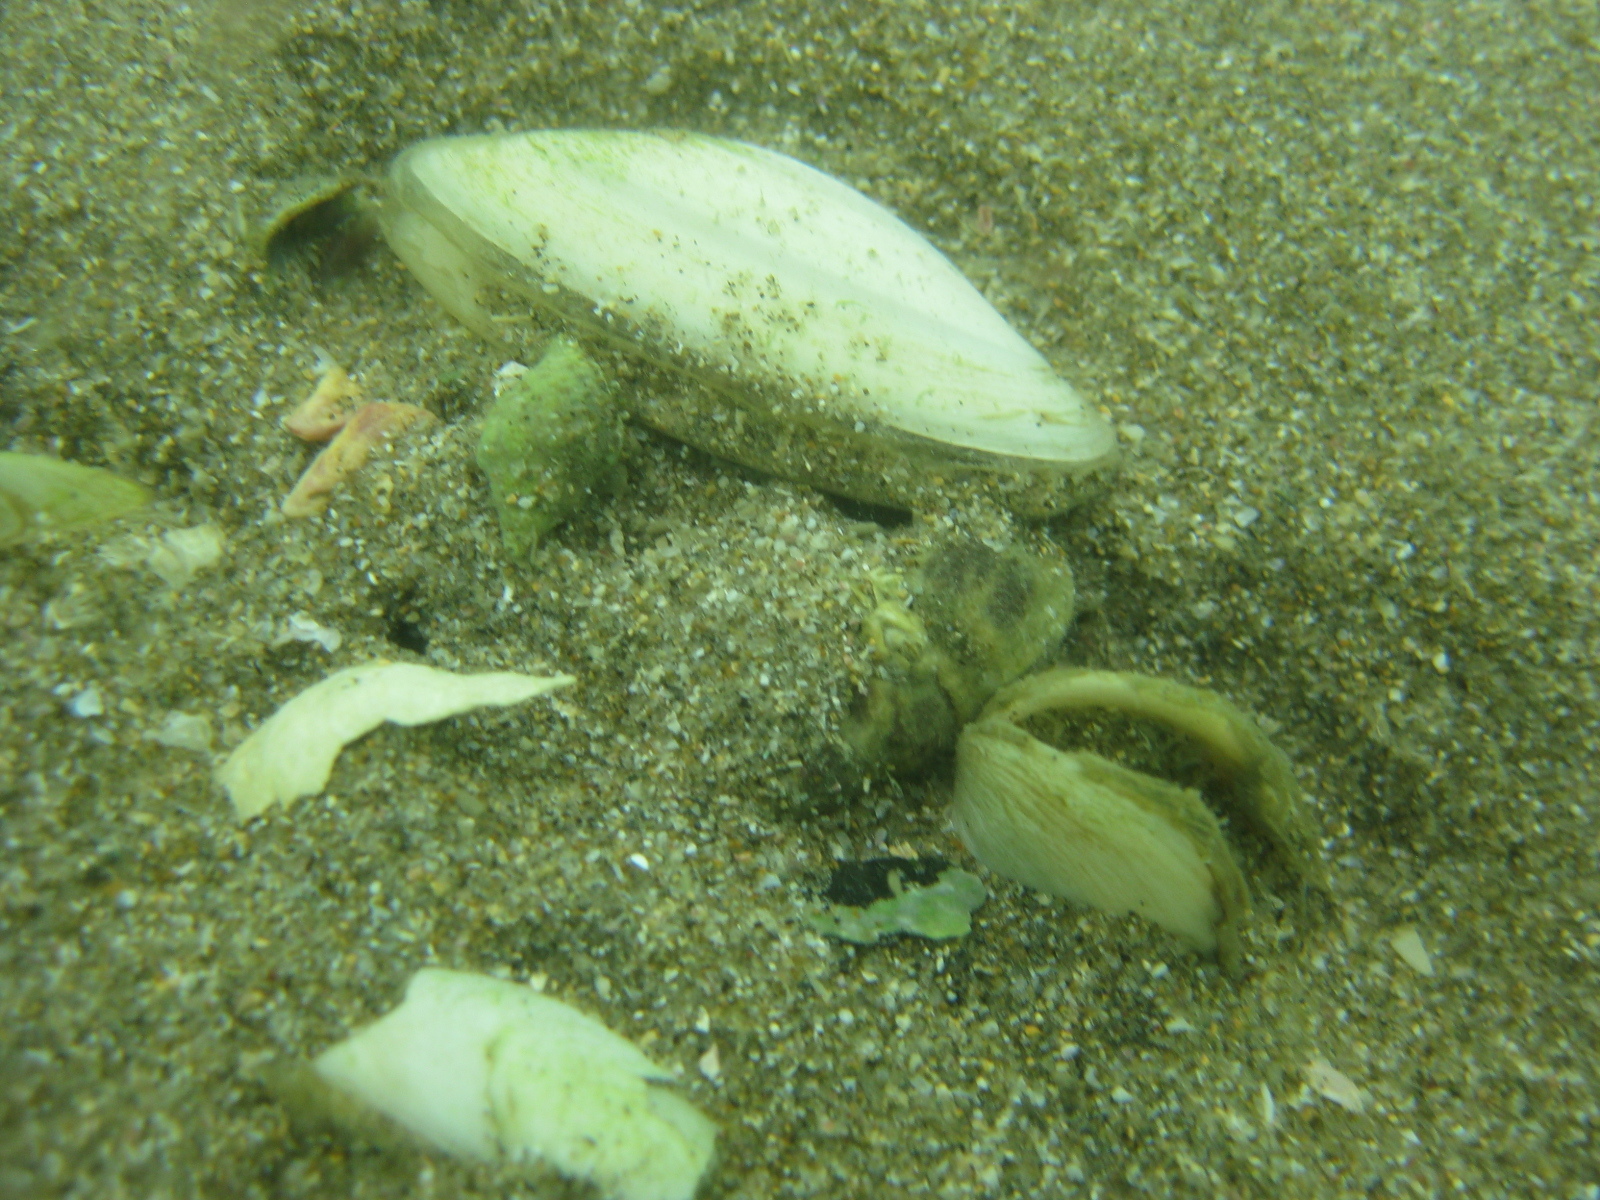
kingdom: Animalia
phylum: Mollusca
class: Bivalvia
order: Venerida
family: Mesodesmatidae
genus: Paphies
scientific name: Paphies australis
